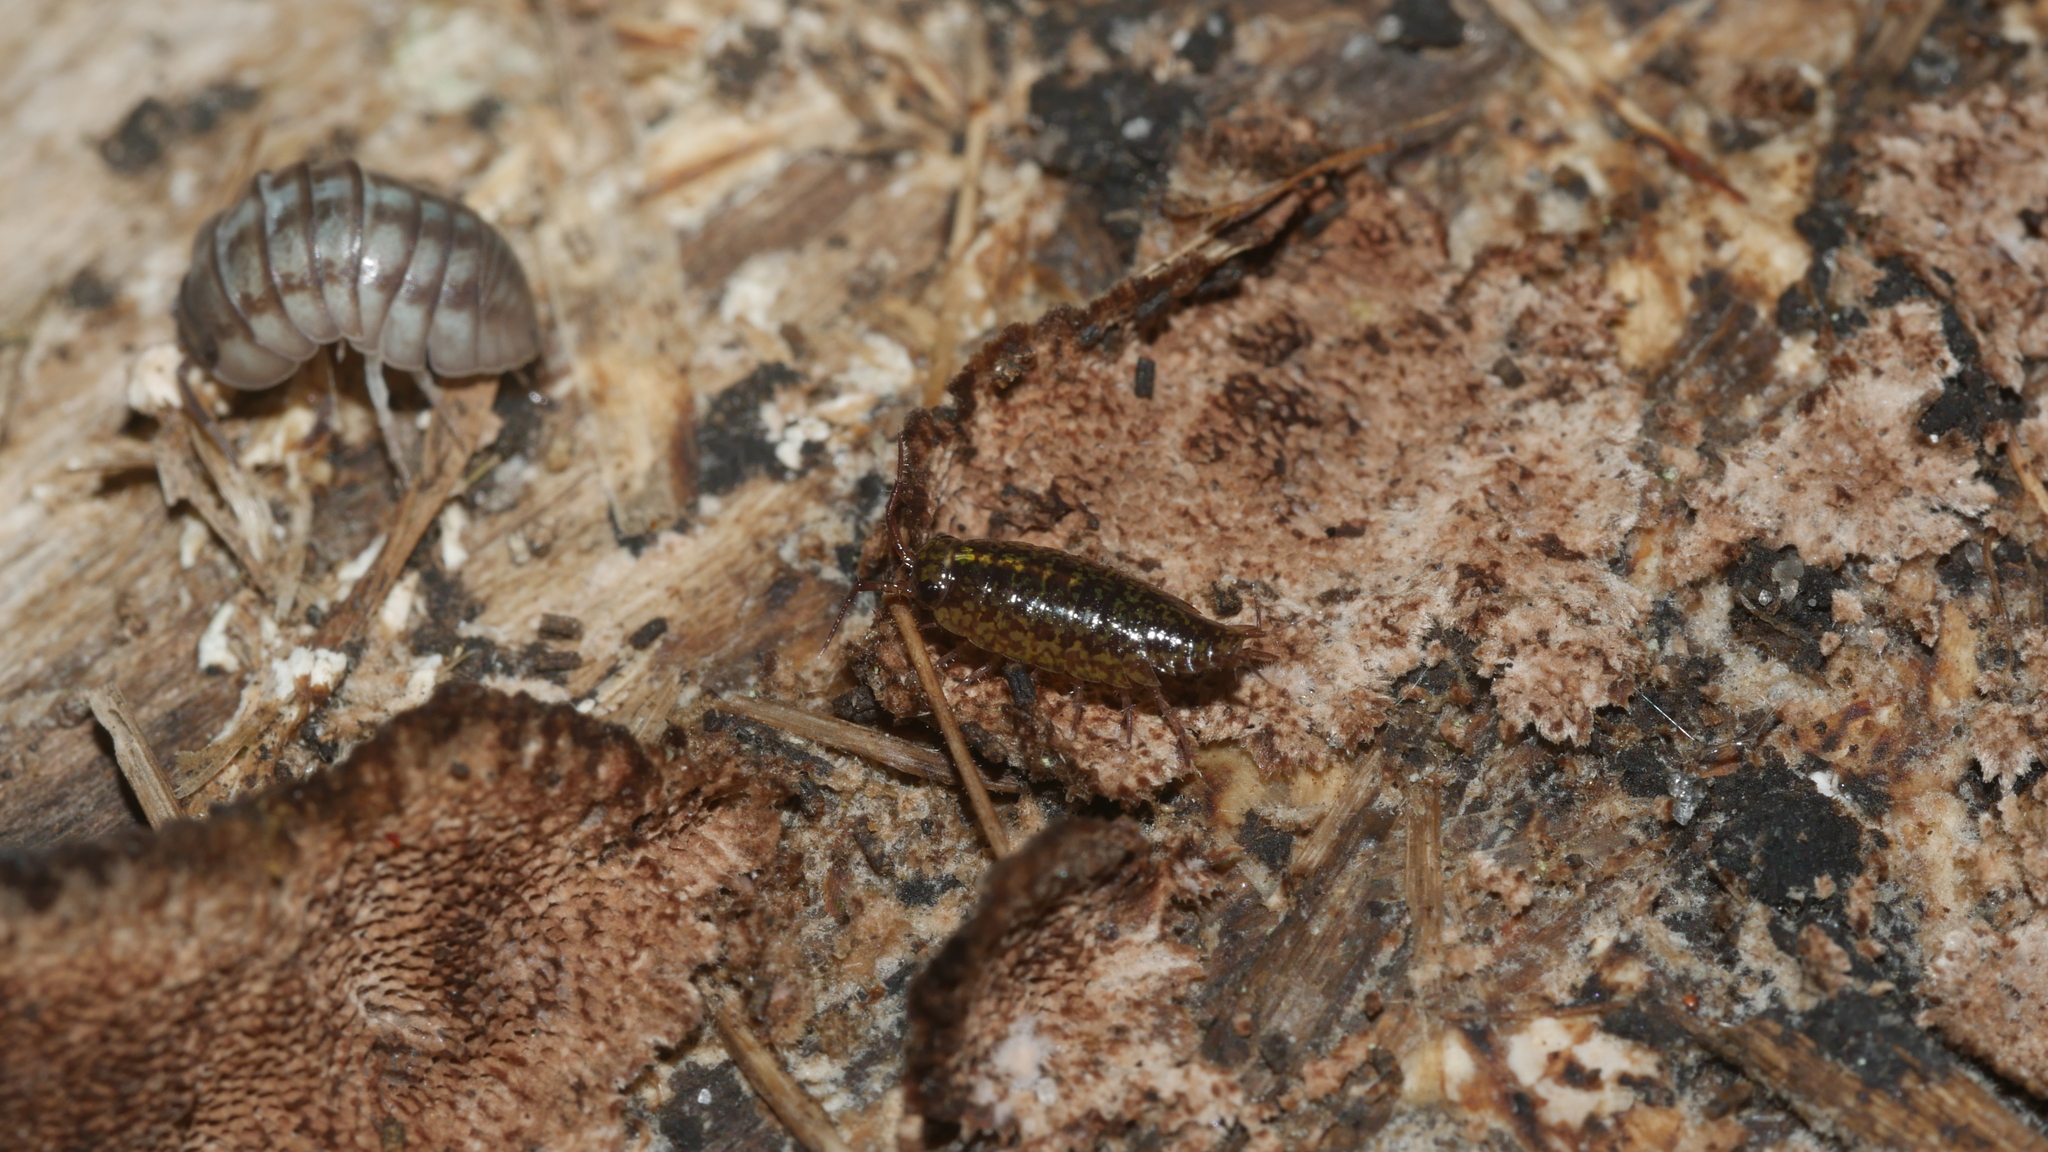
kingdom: Animalia
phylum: Arthropoda
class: Malacostraca
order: Isopoda
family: Ligiidae
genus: Ligidium
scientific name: Ligidium elrodii
